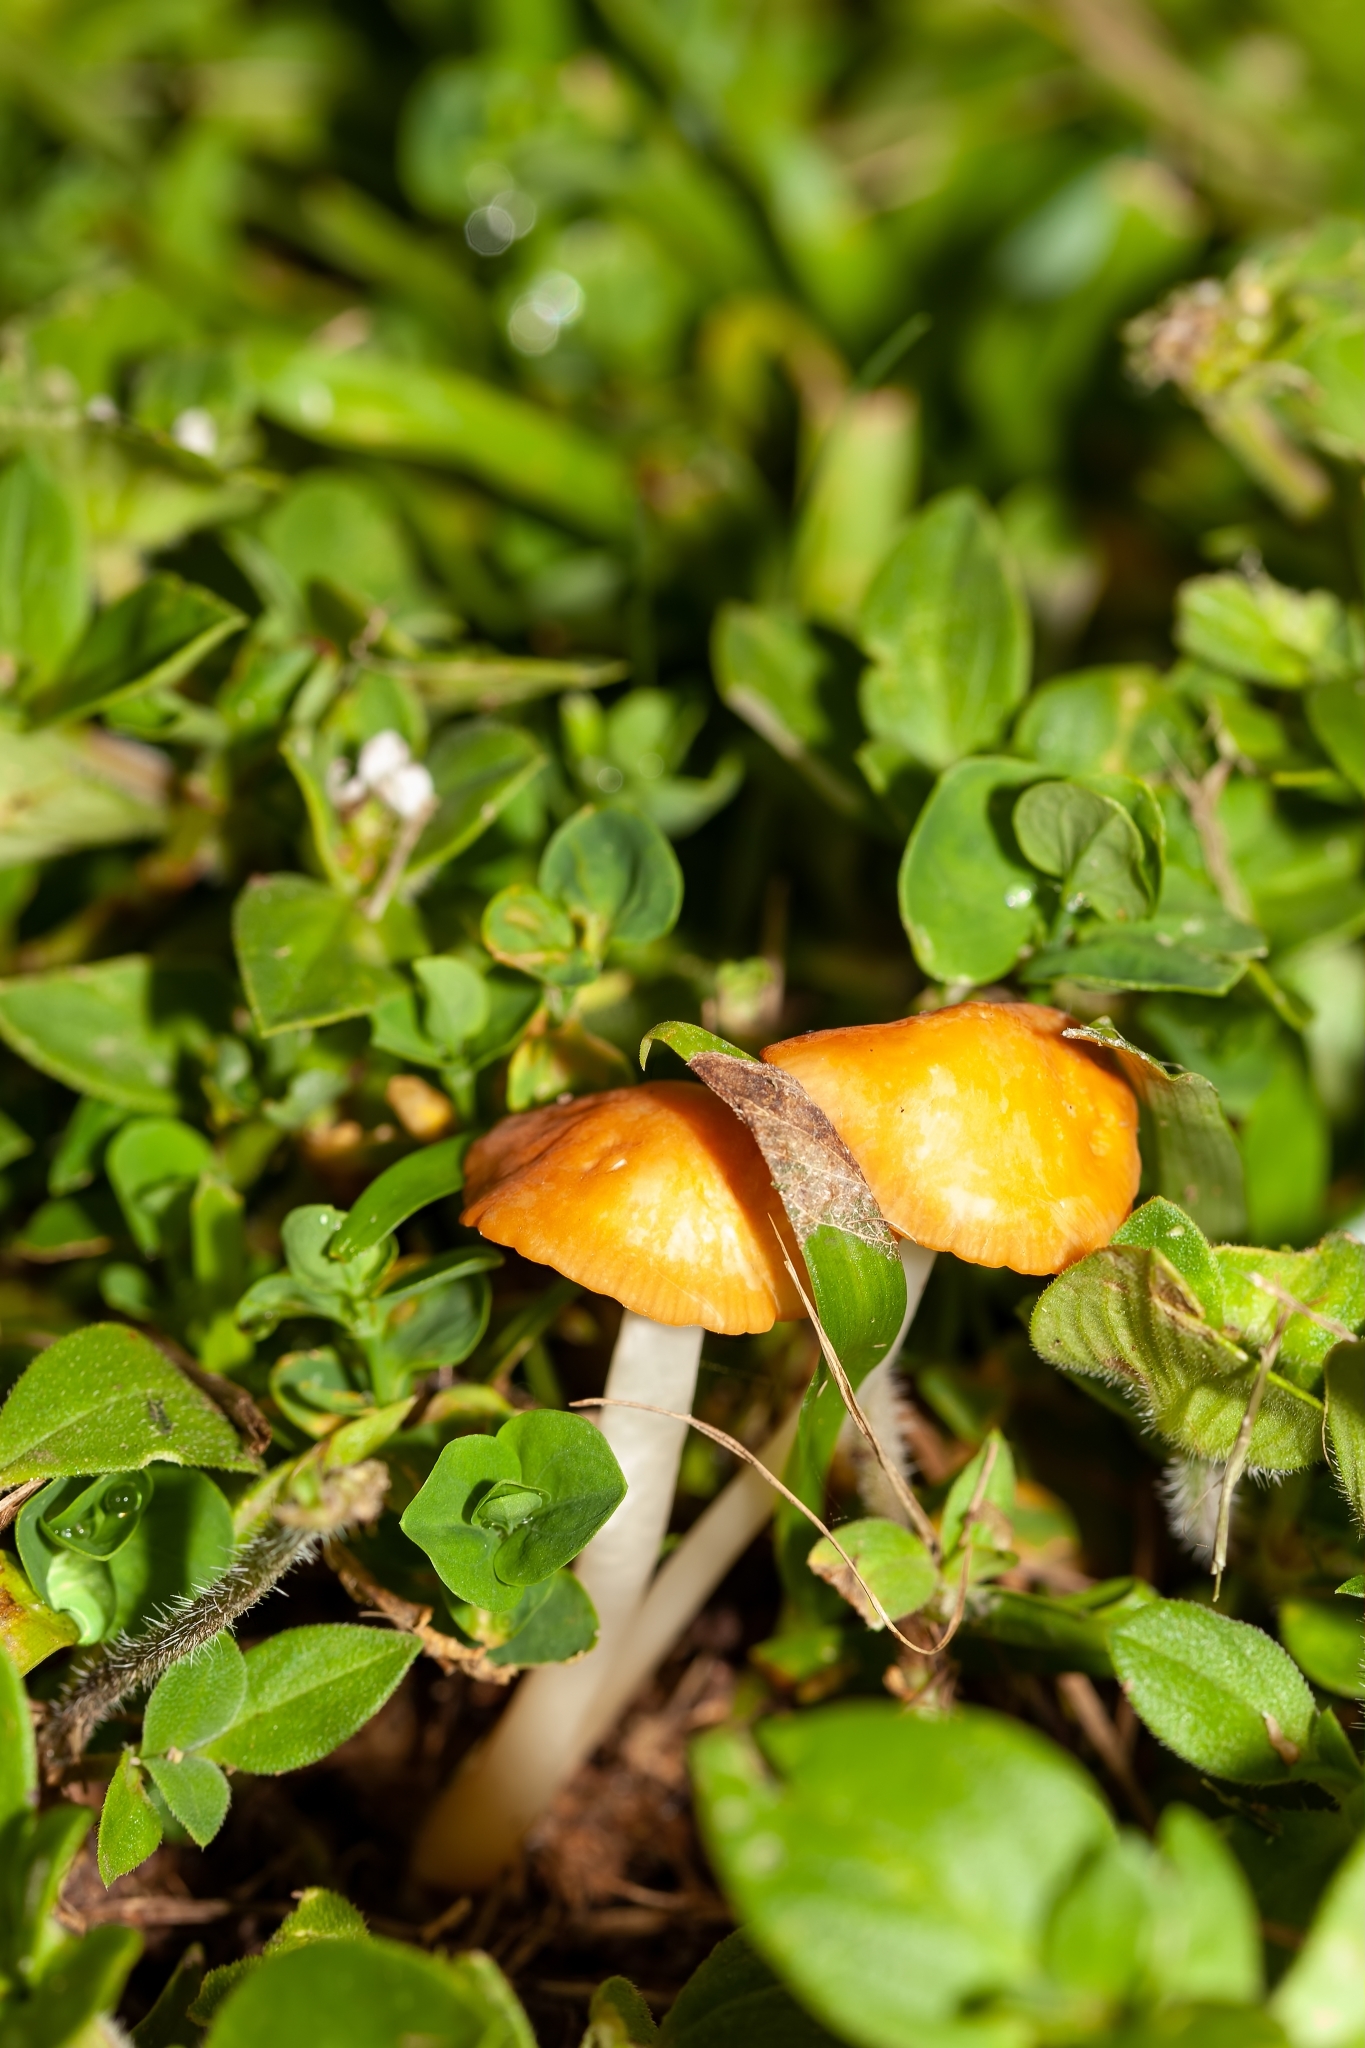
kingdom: Fungi
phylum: Basidiomycota
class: Agaricomycetes
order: Agaricales
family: Marasmiaceae
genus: Marasmius
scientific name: Marasmius vagus
